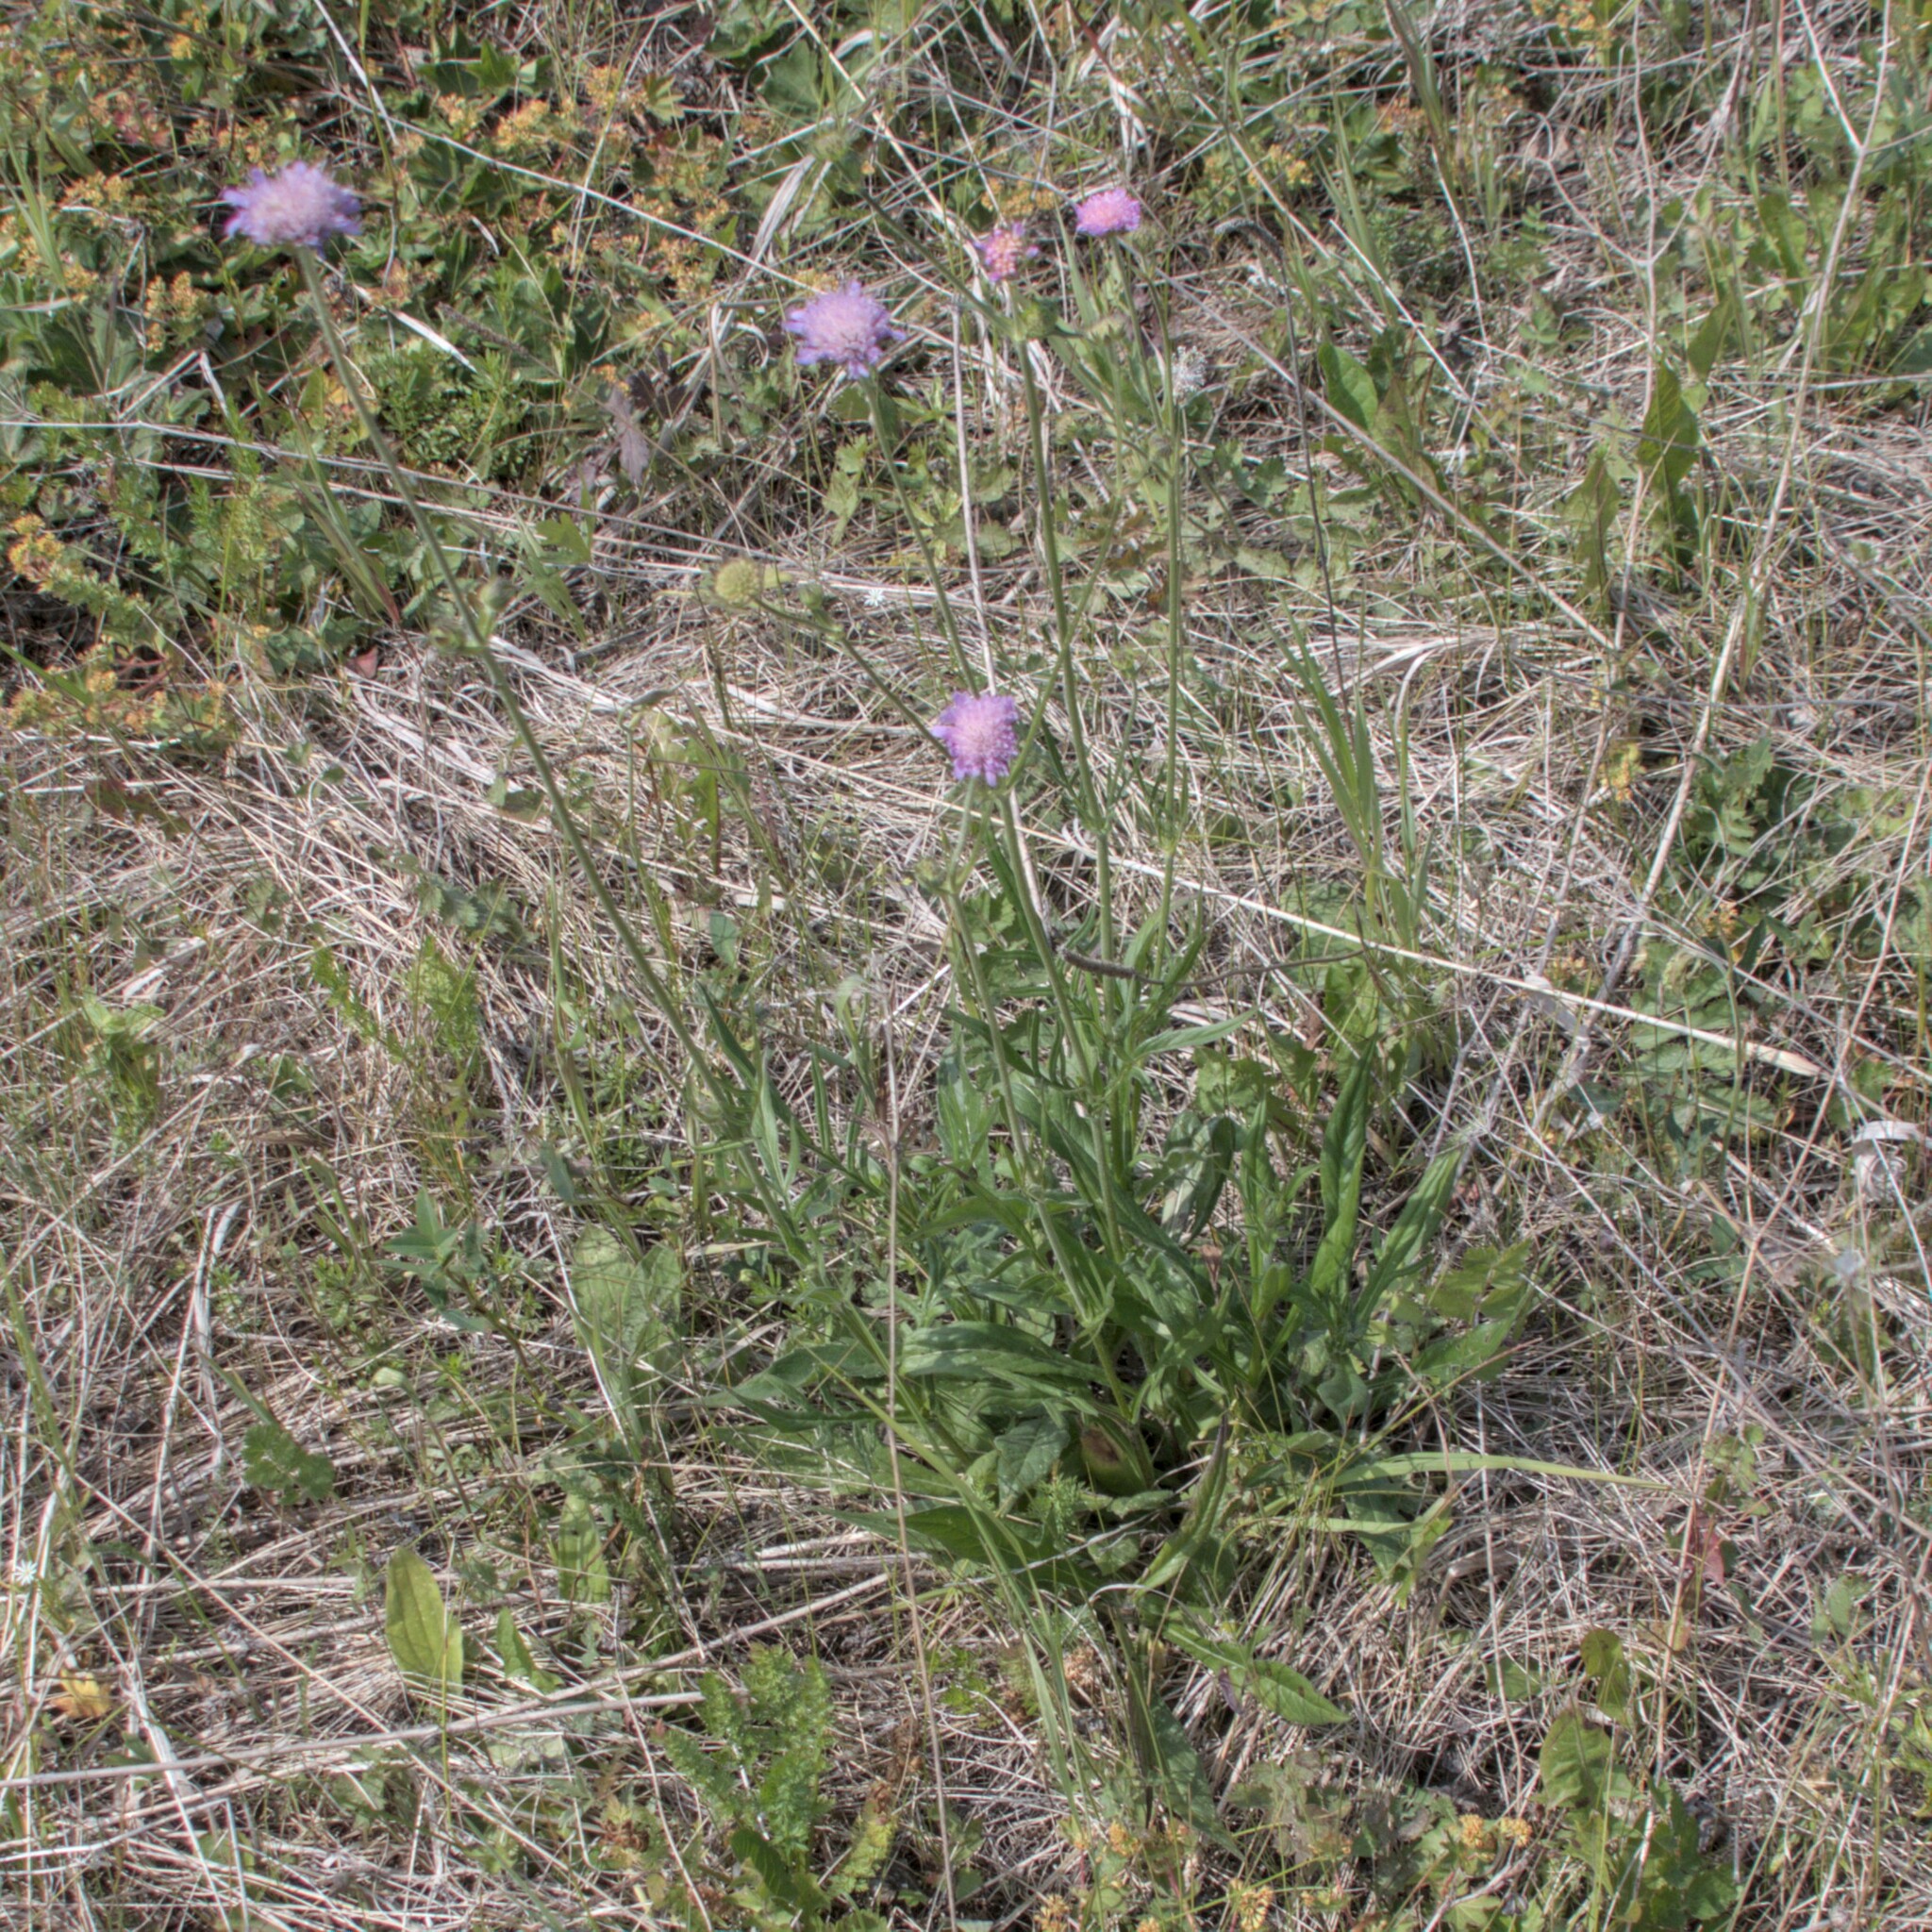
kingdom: Plantae
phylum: Tracheophyta
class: Magnoliopsida
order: Dipsacales
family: Caprifoliaceae
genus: Knautia
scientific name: Knautia arvensis
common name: Field scabiosa
